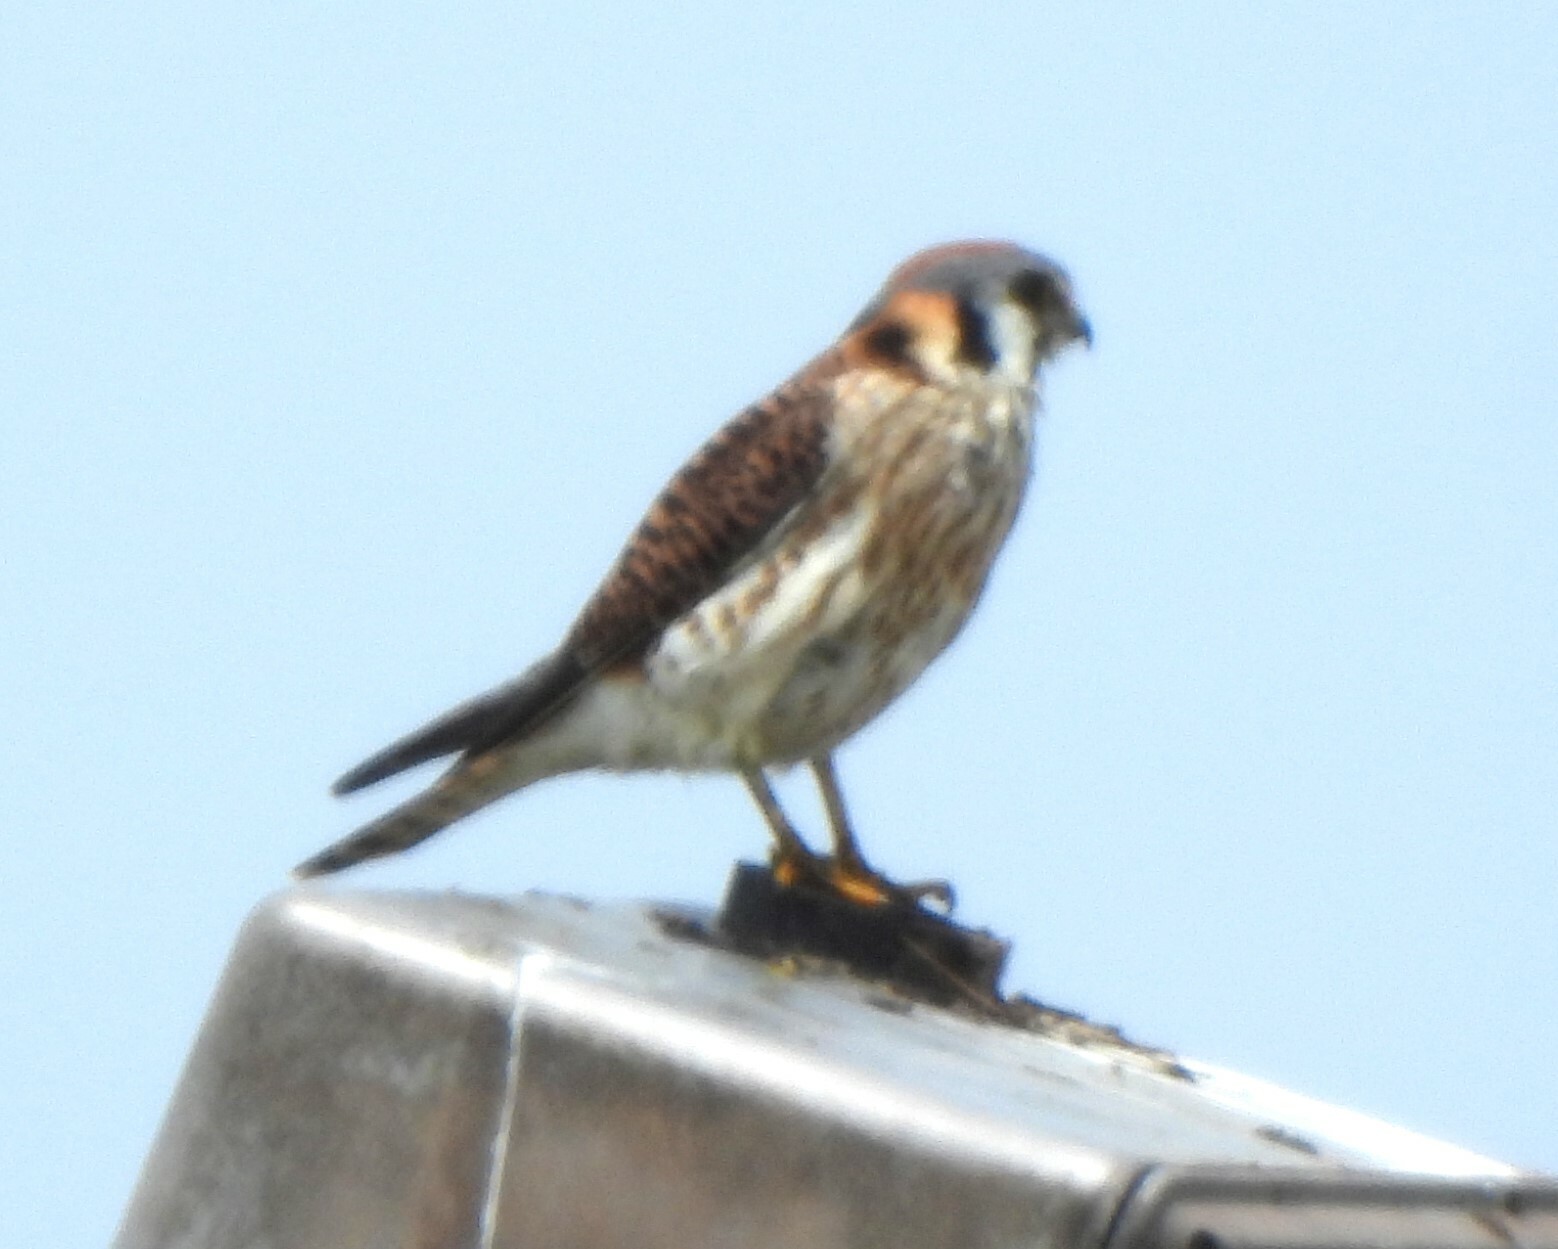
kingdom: Animalia
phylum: Chordata
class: Aves
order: Falconiformes
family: Falconidae
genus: Falco
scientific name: Falco sparverius
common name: American kestrel
